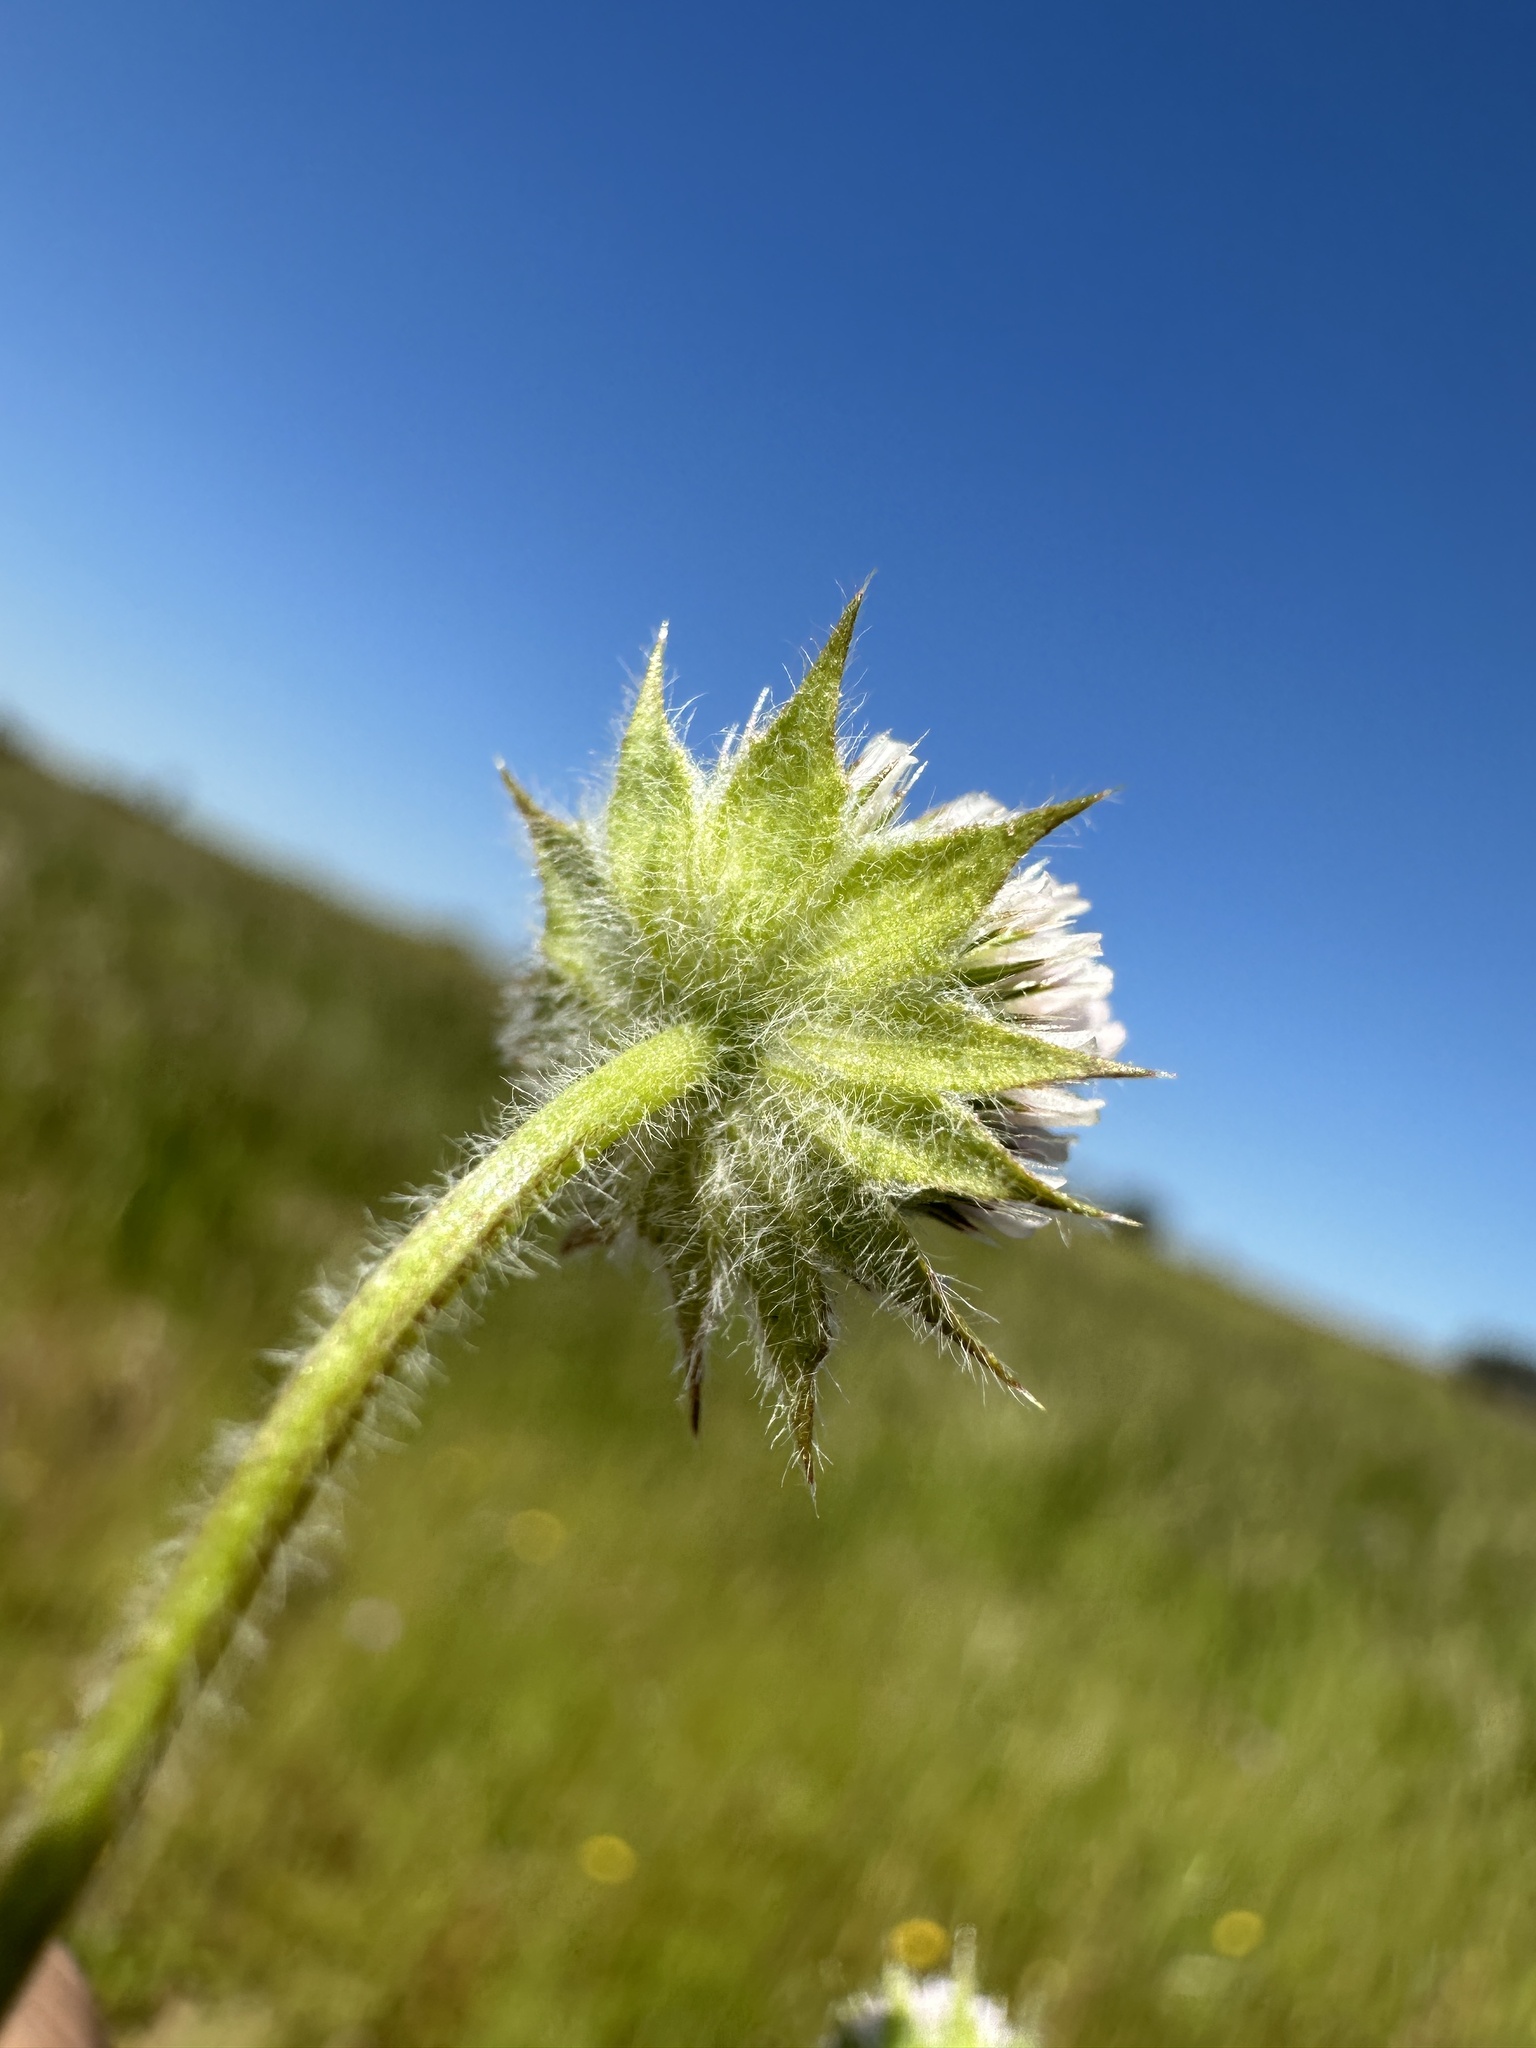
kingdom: Plantae
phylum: Tracheophyta
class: Magnoliopsida
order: Fabales
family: Fabaceae
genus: Trifolium
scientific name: Trifolium microcephalum
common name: Maiden clover
